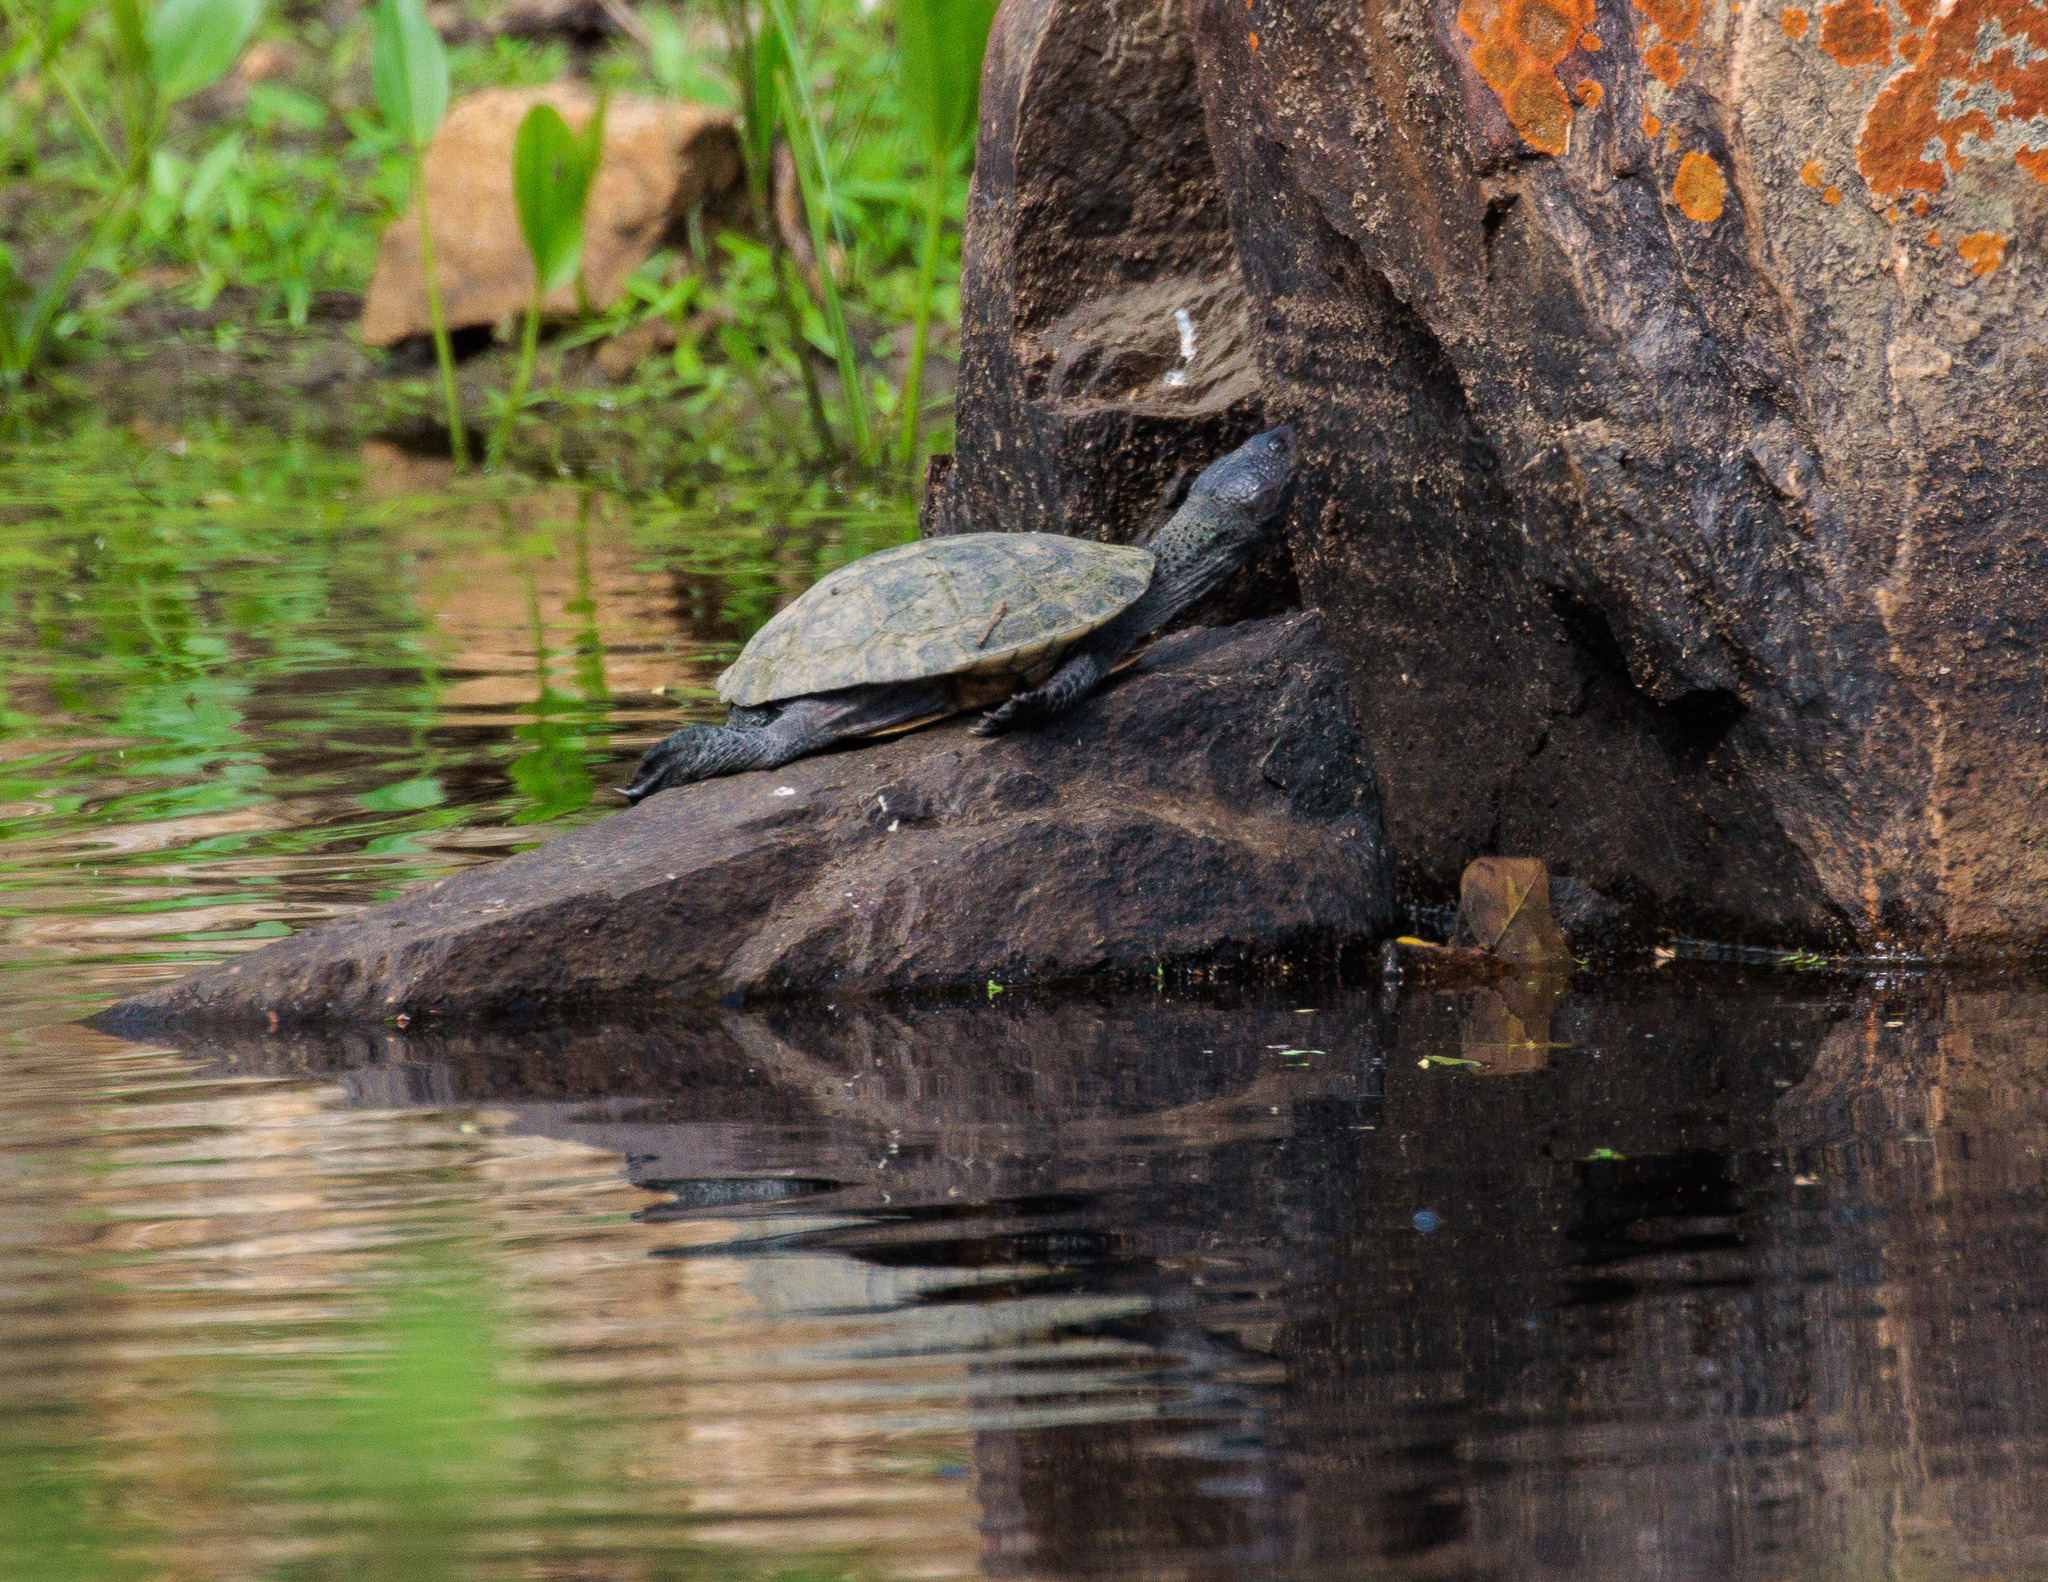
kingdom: Animalia
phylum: Chordata
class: Testudines
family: Chelidae
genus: Mesoclemmys
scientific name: Mesoclemmys tuberculata
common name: Tuberculate toad-headed turtle
